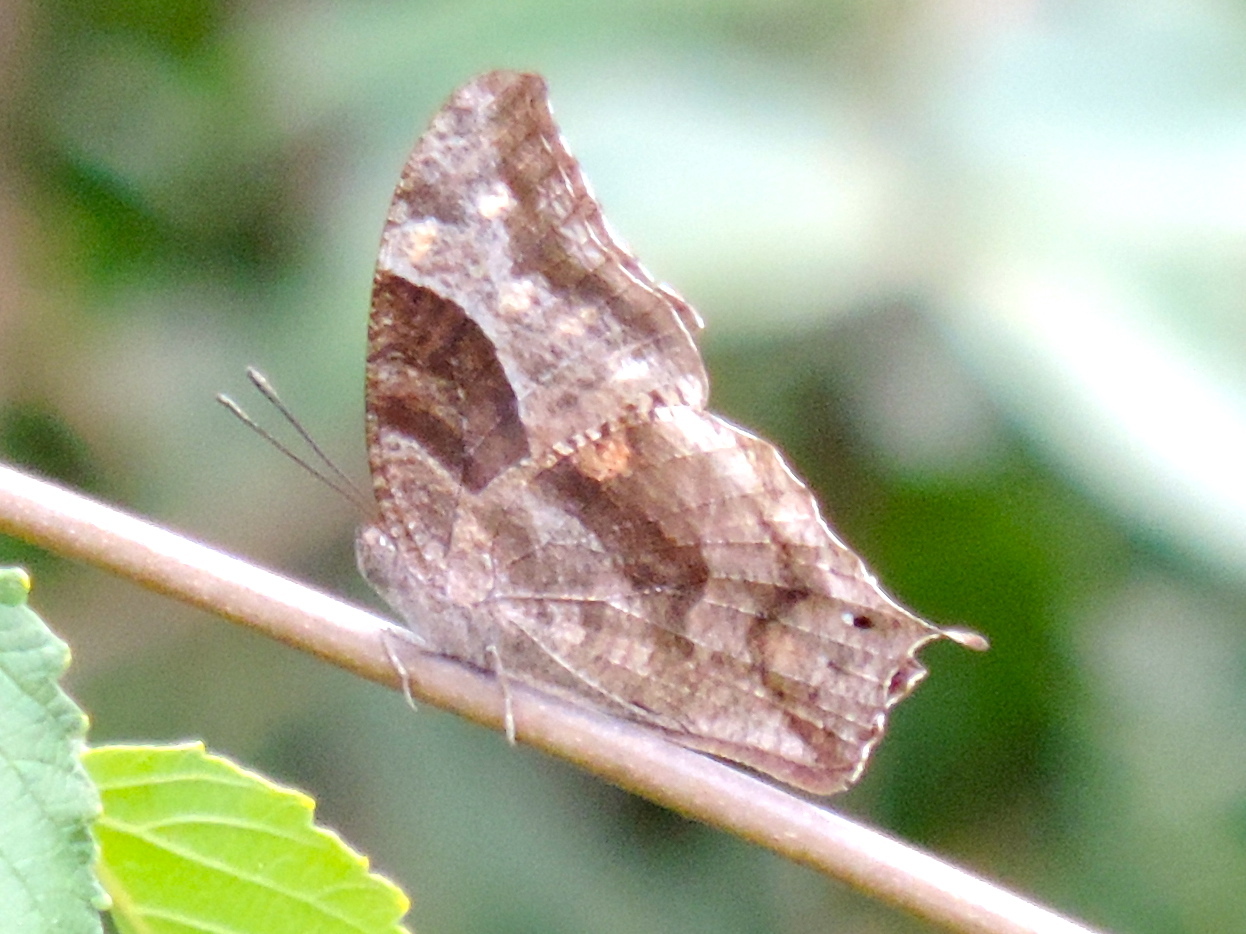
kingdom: Animalia
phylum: Arthropoda
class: Insecta
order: Lepidoptera
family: Nymphalidae
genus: Anaea
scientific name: Anaea pithyusa
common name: Pale-spotted leafwing
